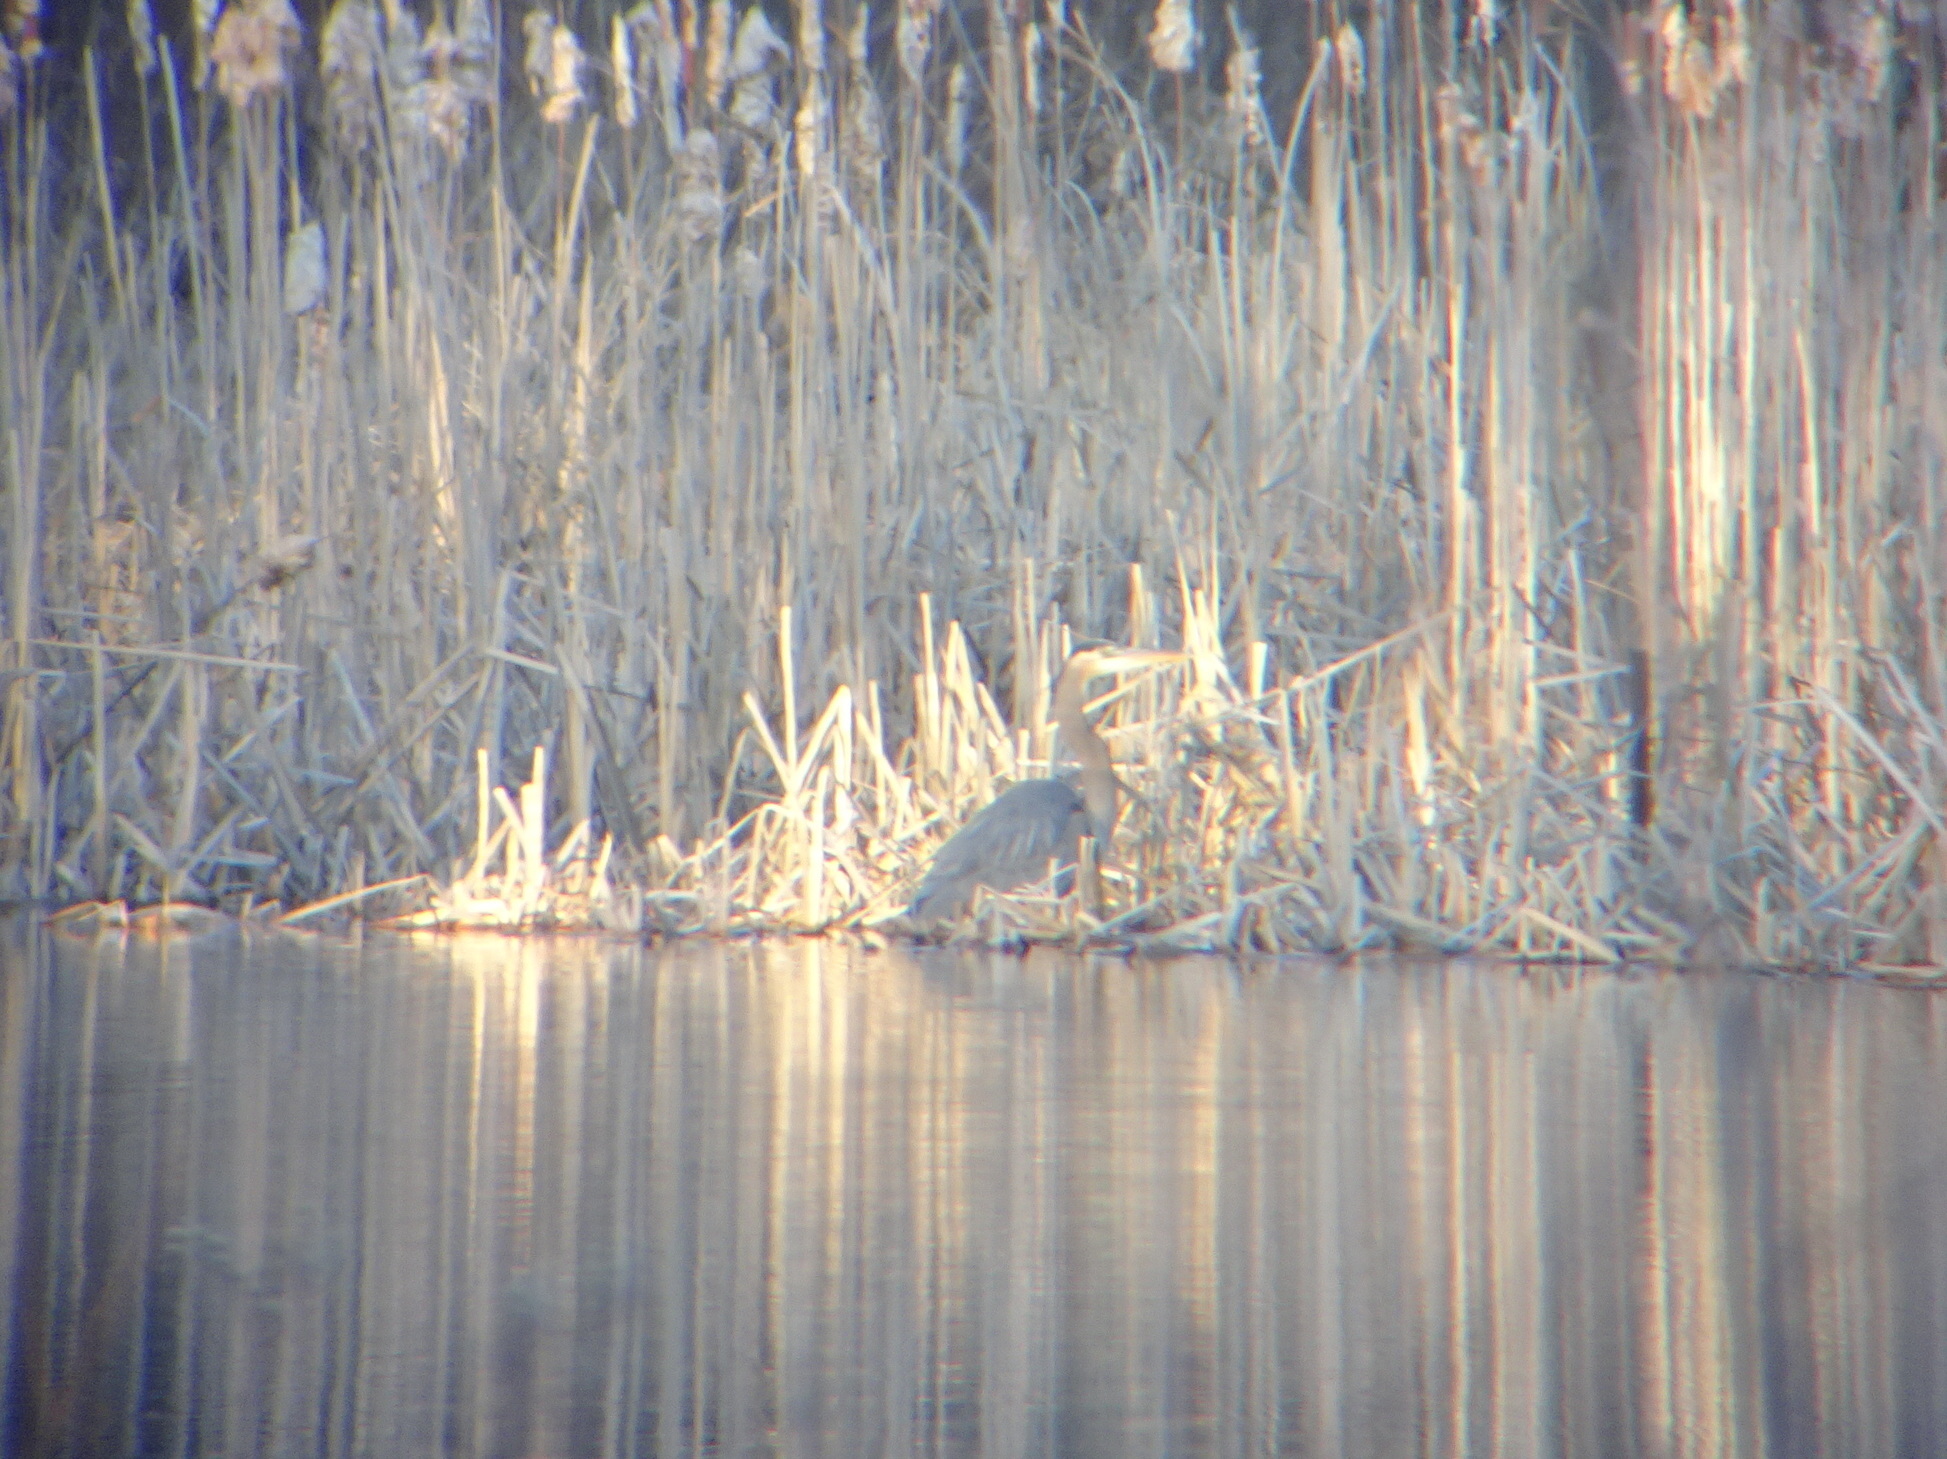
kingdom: Animalia
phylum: Chordata
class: Aves
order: Pelecaniformes
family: Ardeidae
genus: Ardea
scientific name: Ardea herodias
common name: Great blue heron
